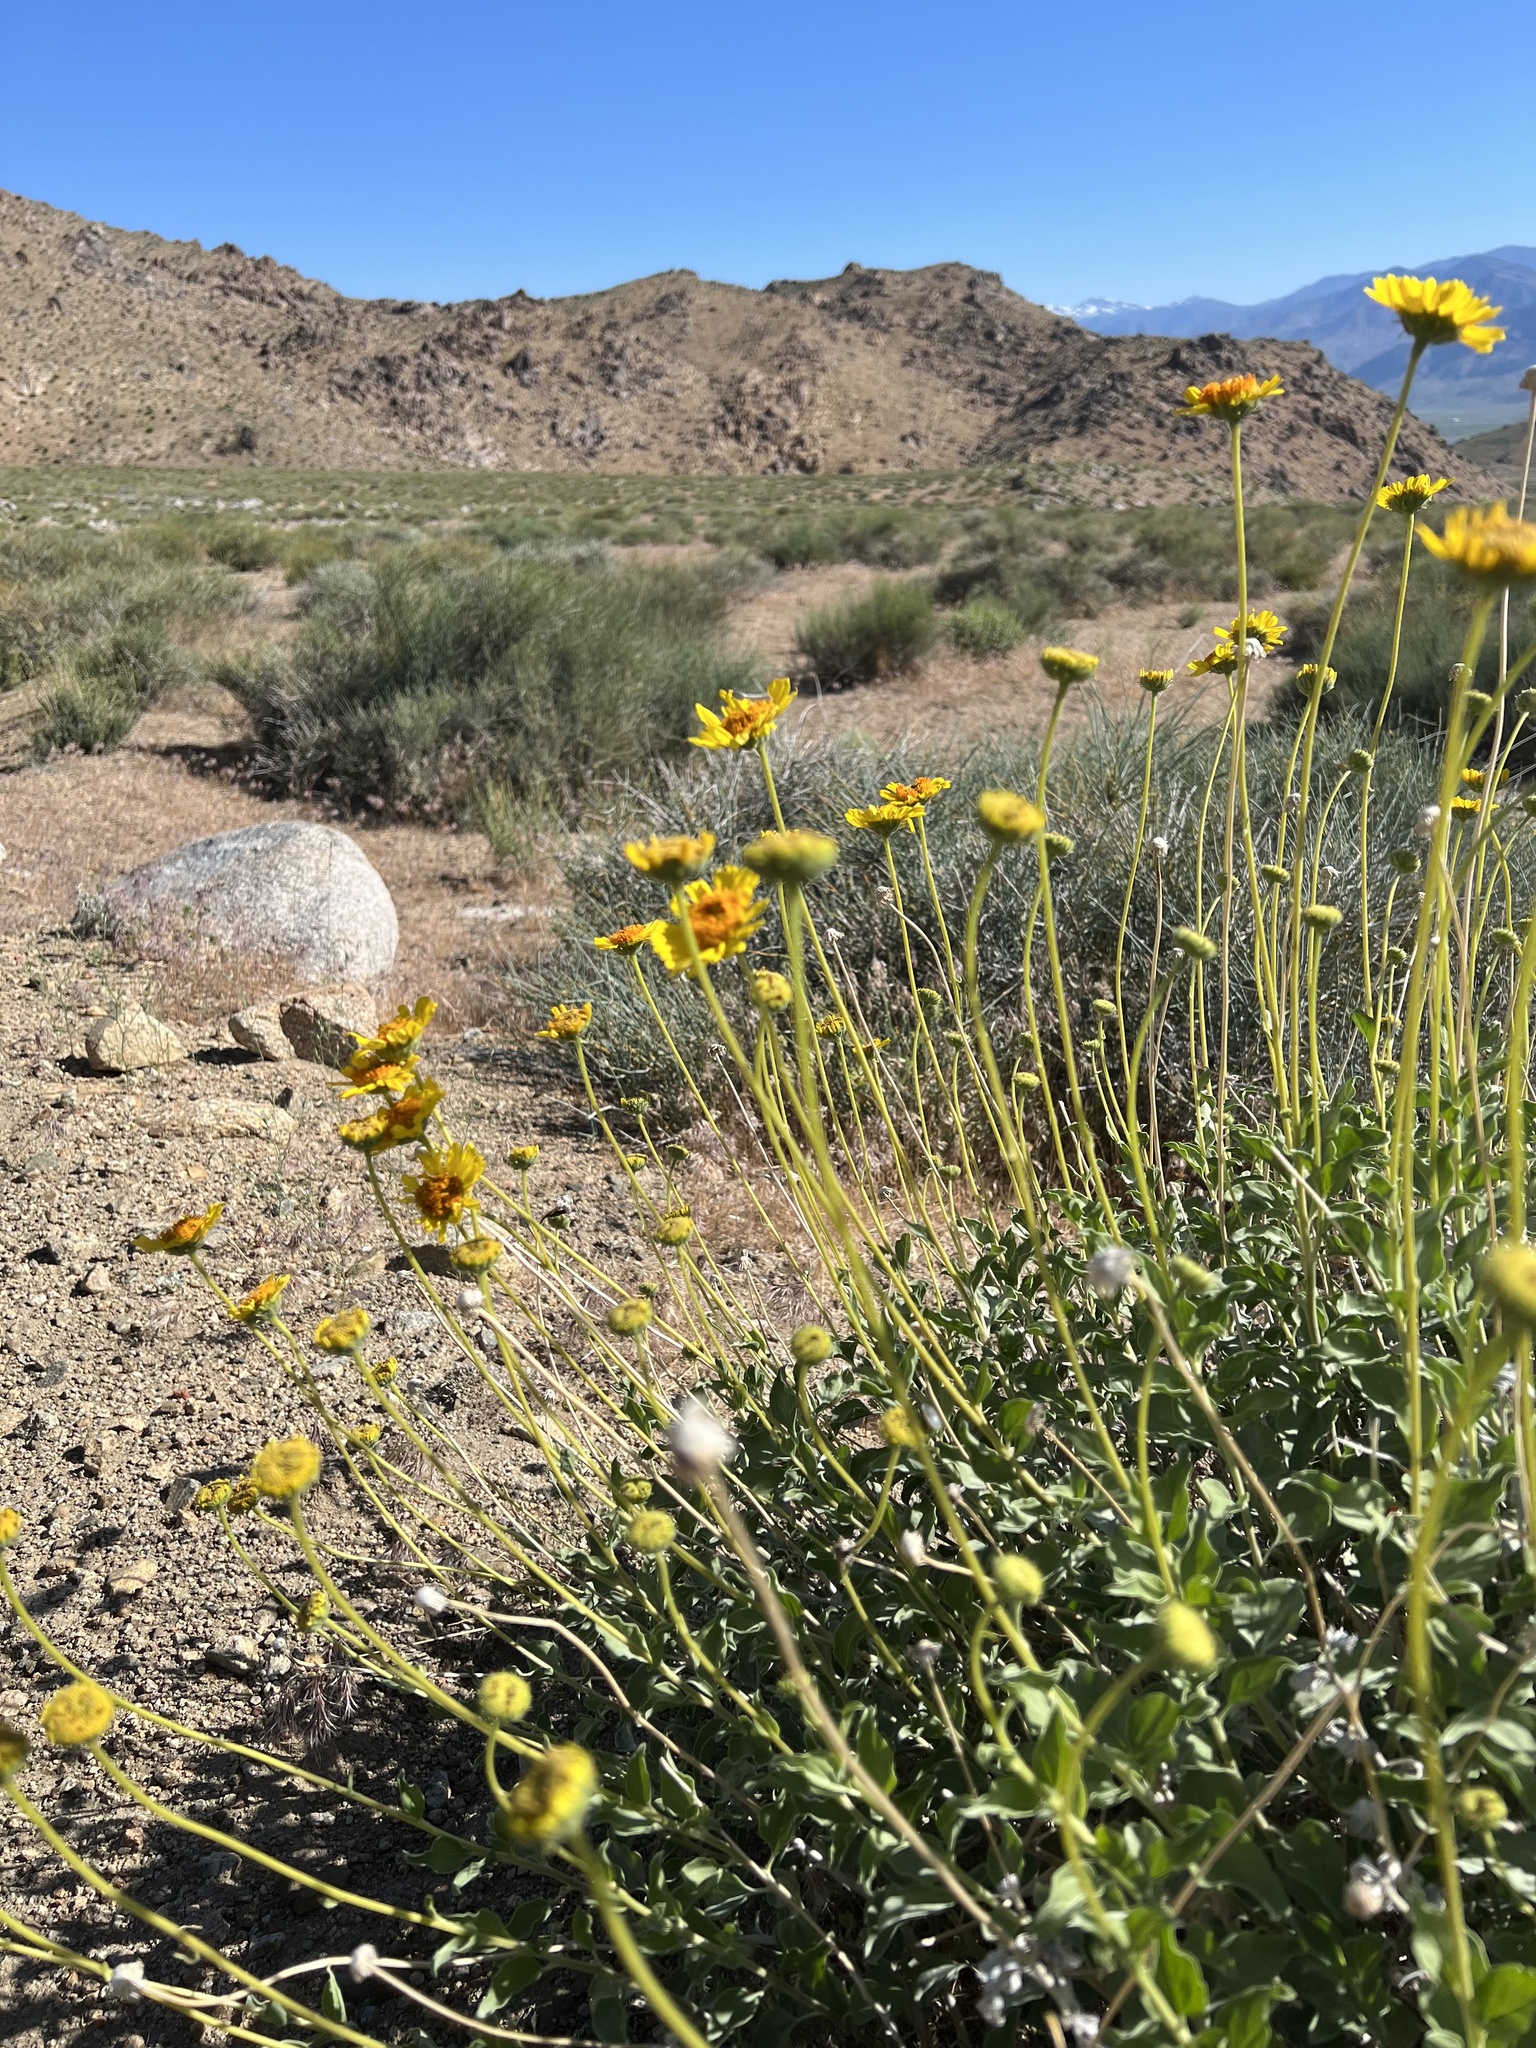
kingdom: Plantae
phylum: Tracheophyta
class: Magnoliopsida
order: Asterales
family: Asteraceae
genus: Encelia
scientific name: Encelia actoni
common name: Acton encelia
